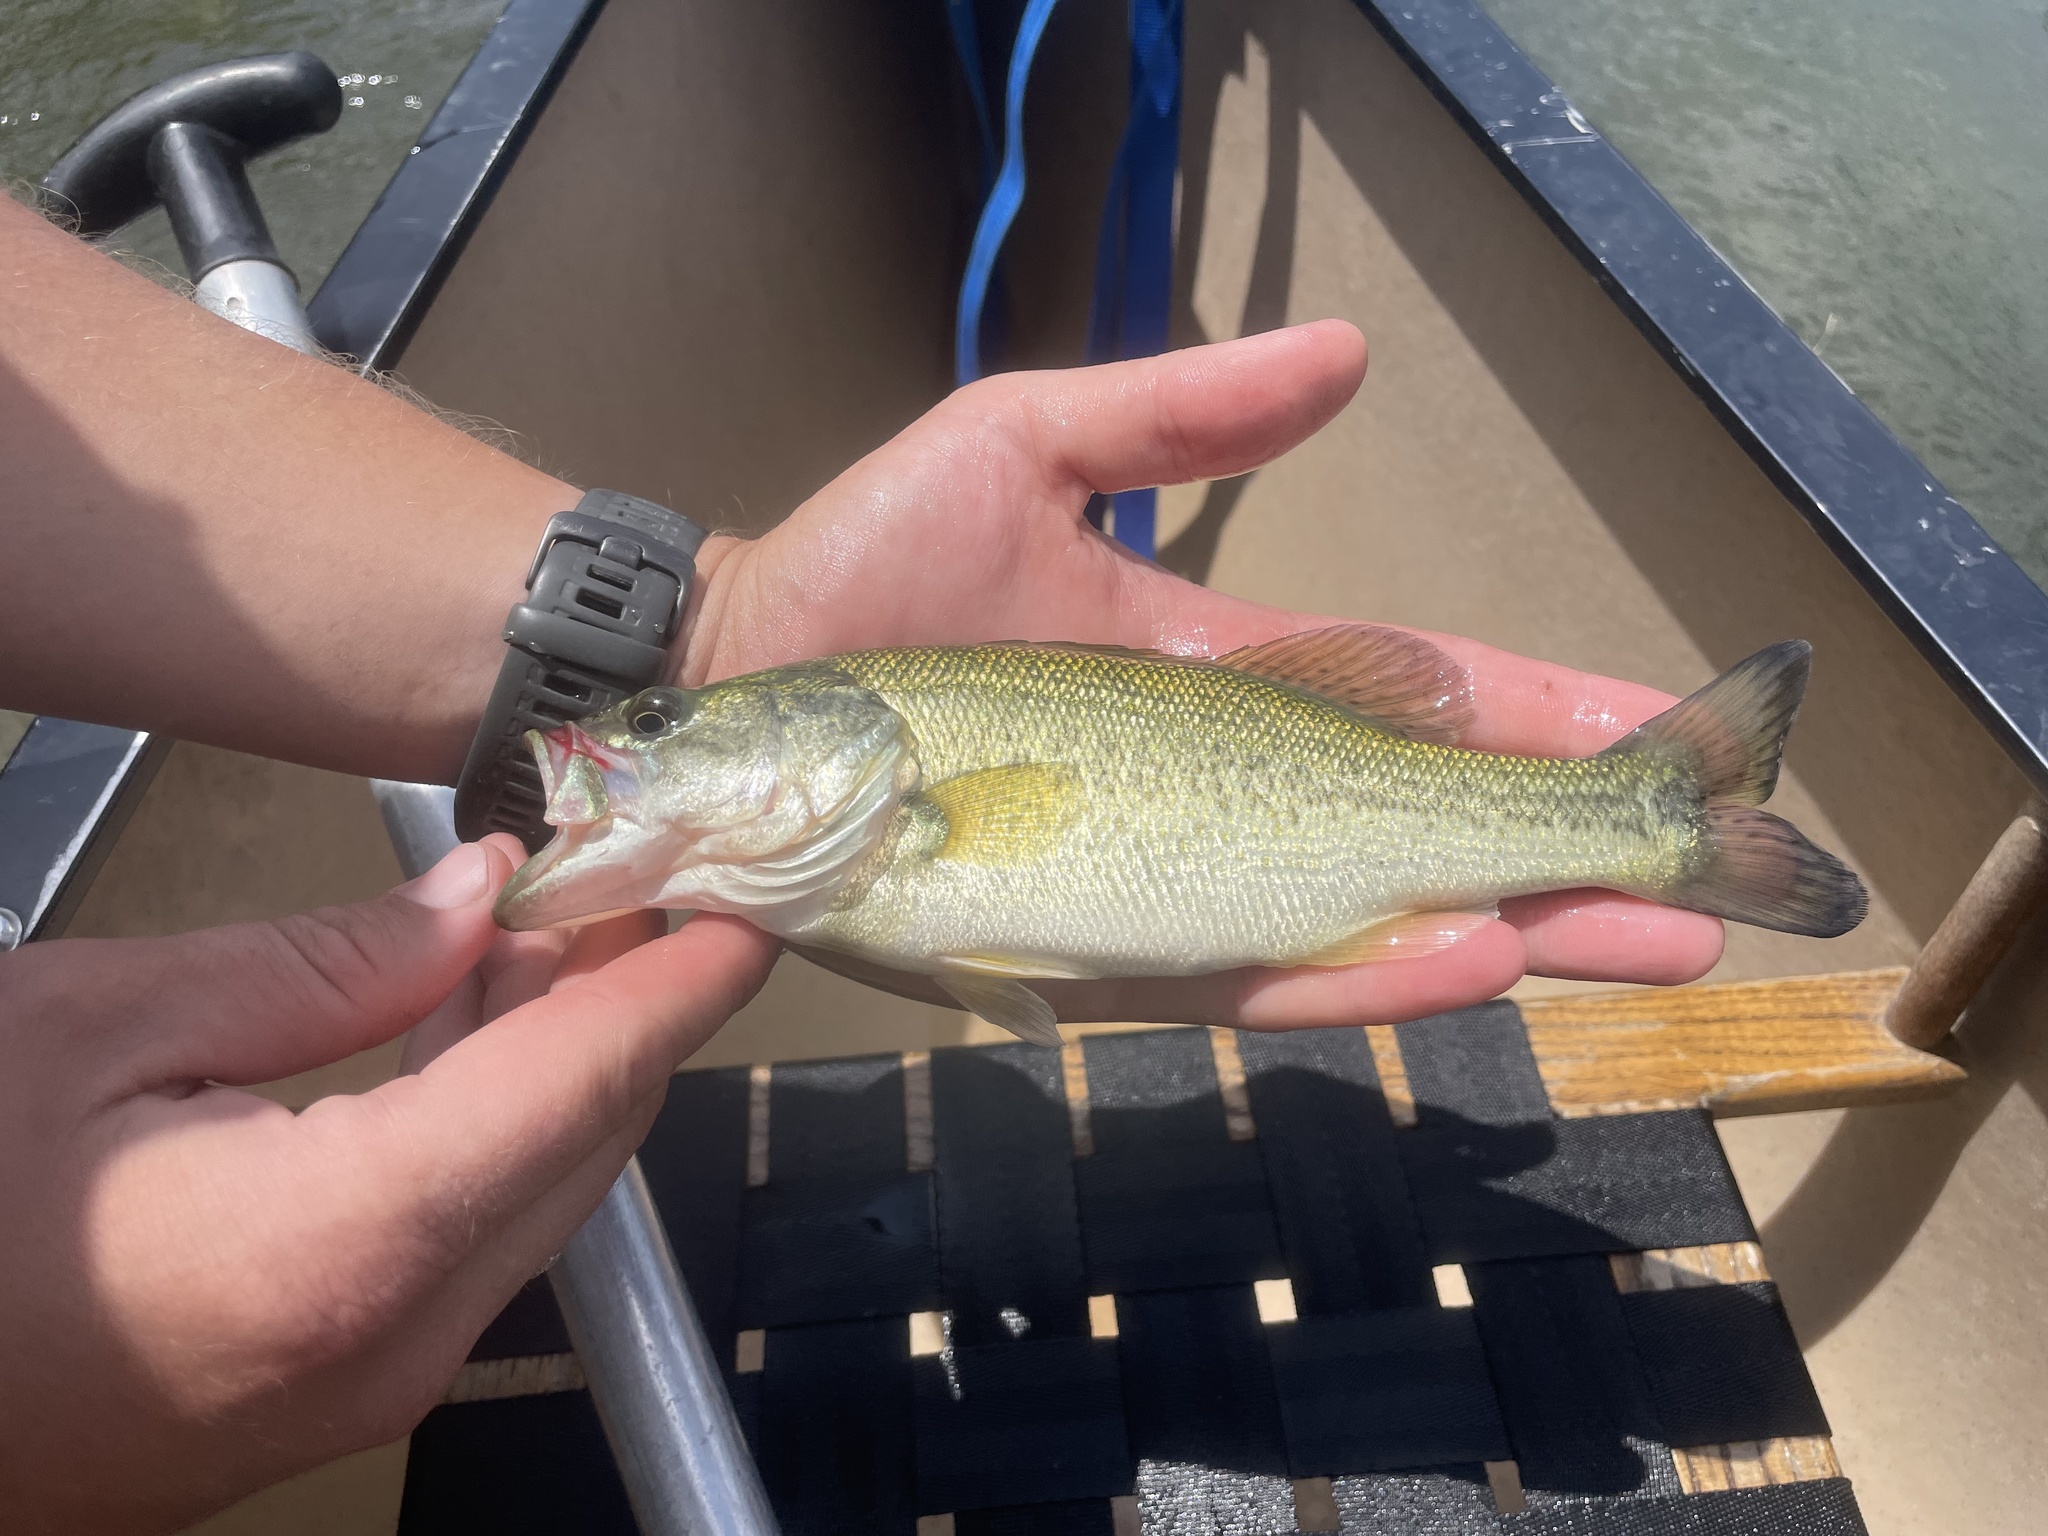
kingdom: Animalia
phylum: Chordata
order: Perciformes
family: Centrarchidae
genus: Micropterus
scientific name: Micropterus
